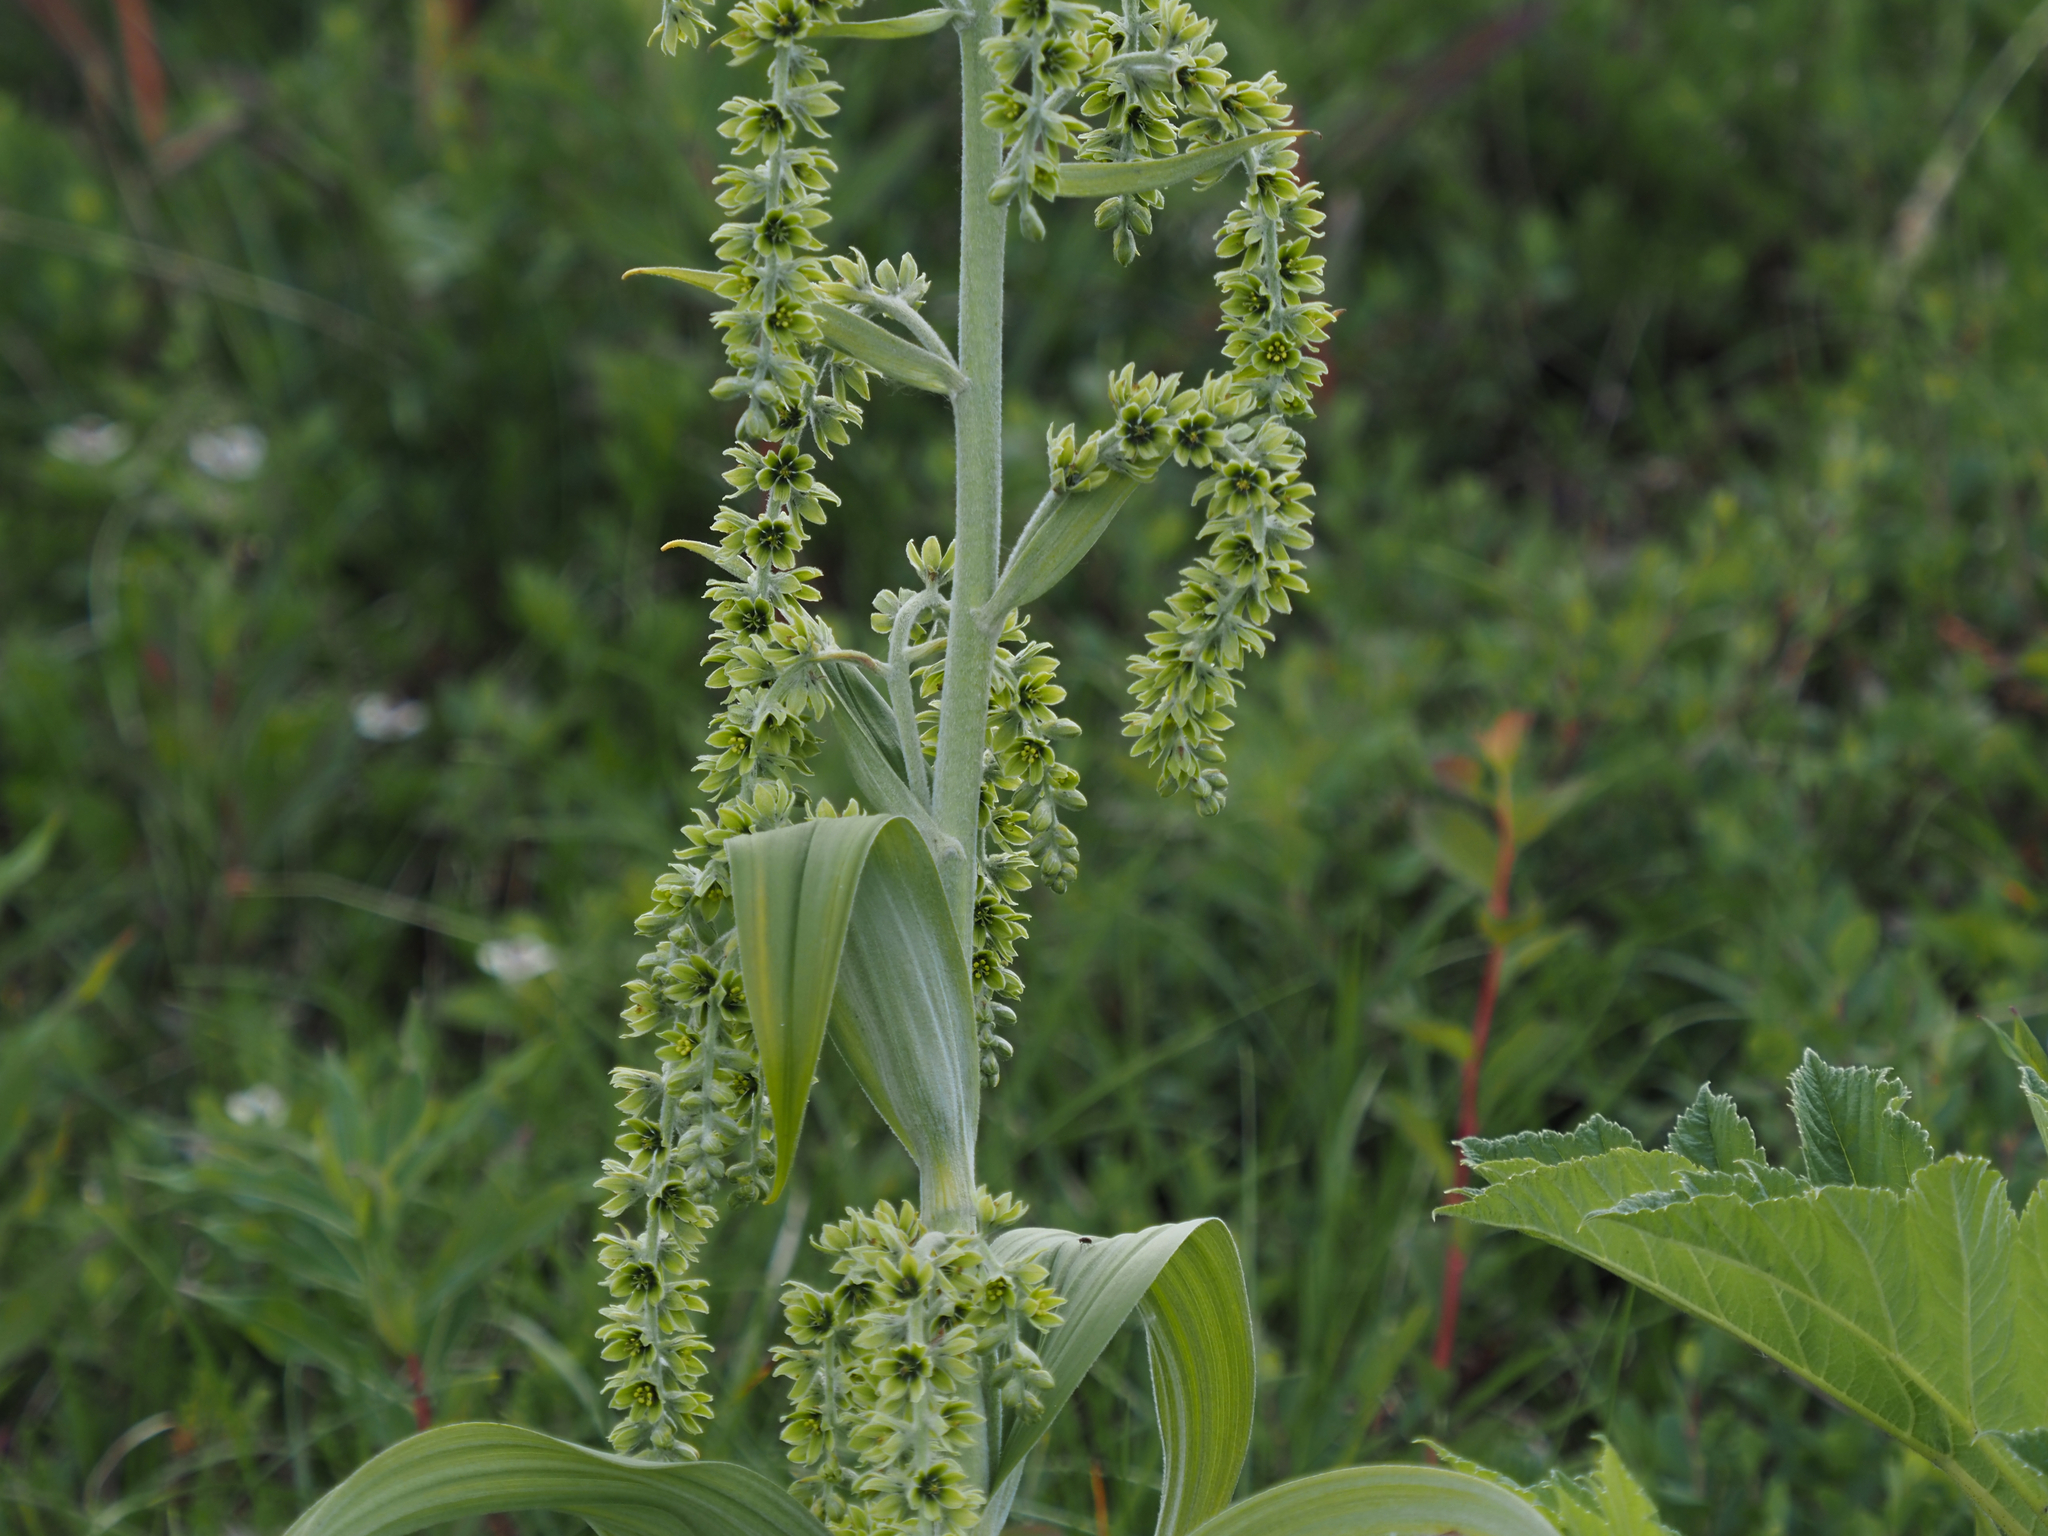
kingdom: Plantae
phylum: Tracheophyta
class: Liliopsida
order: Liliales
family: Melanthiaceae
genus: Veratrum
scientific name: Veratrum viride
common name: American false hellebore
